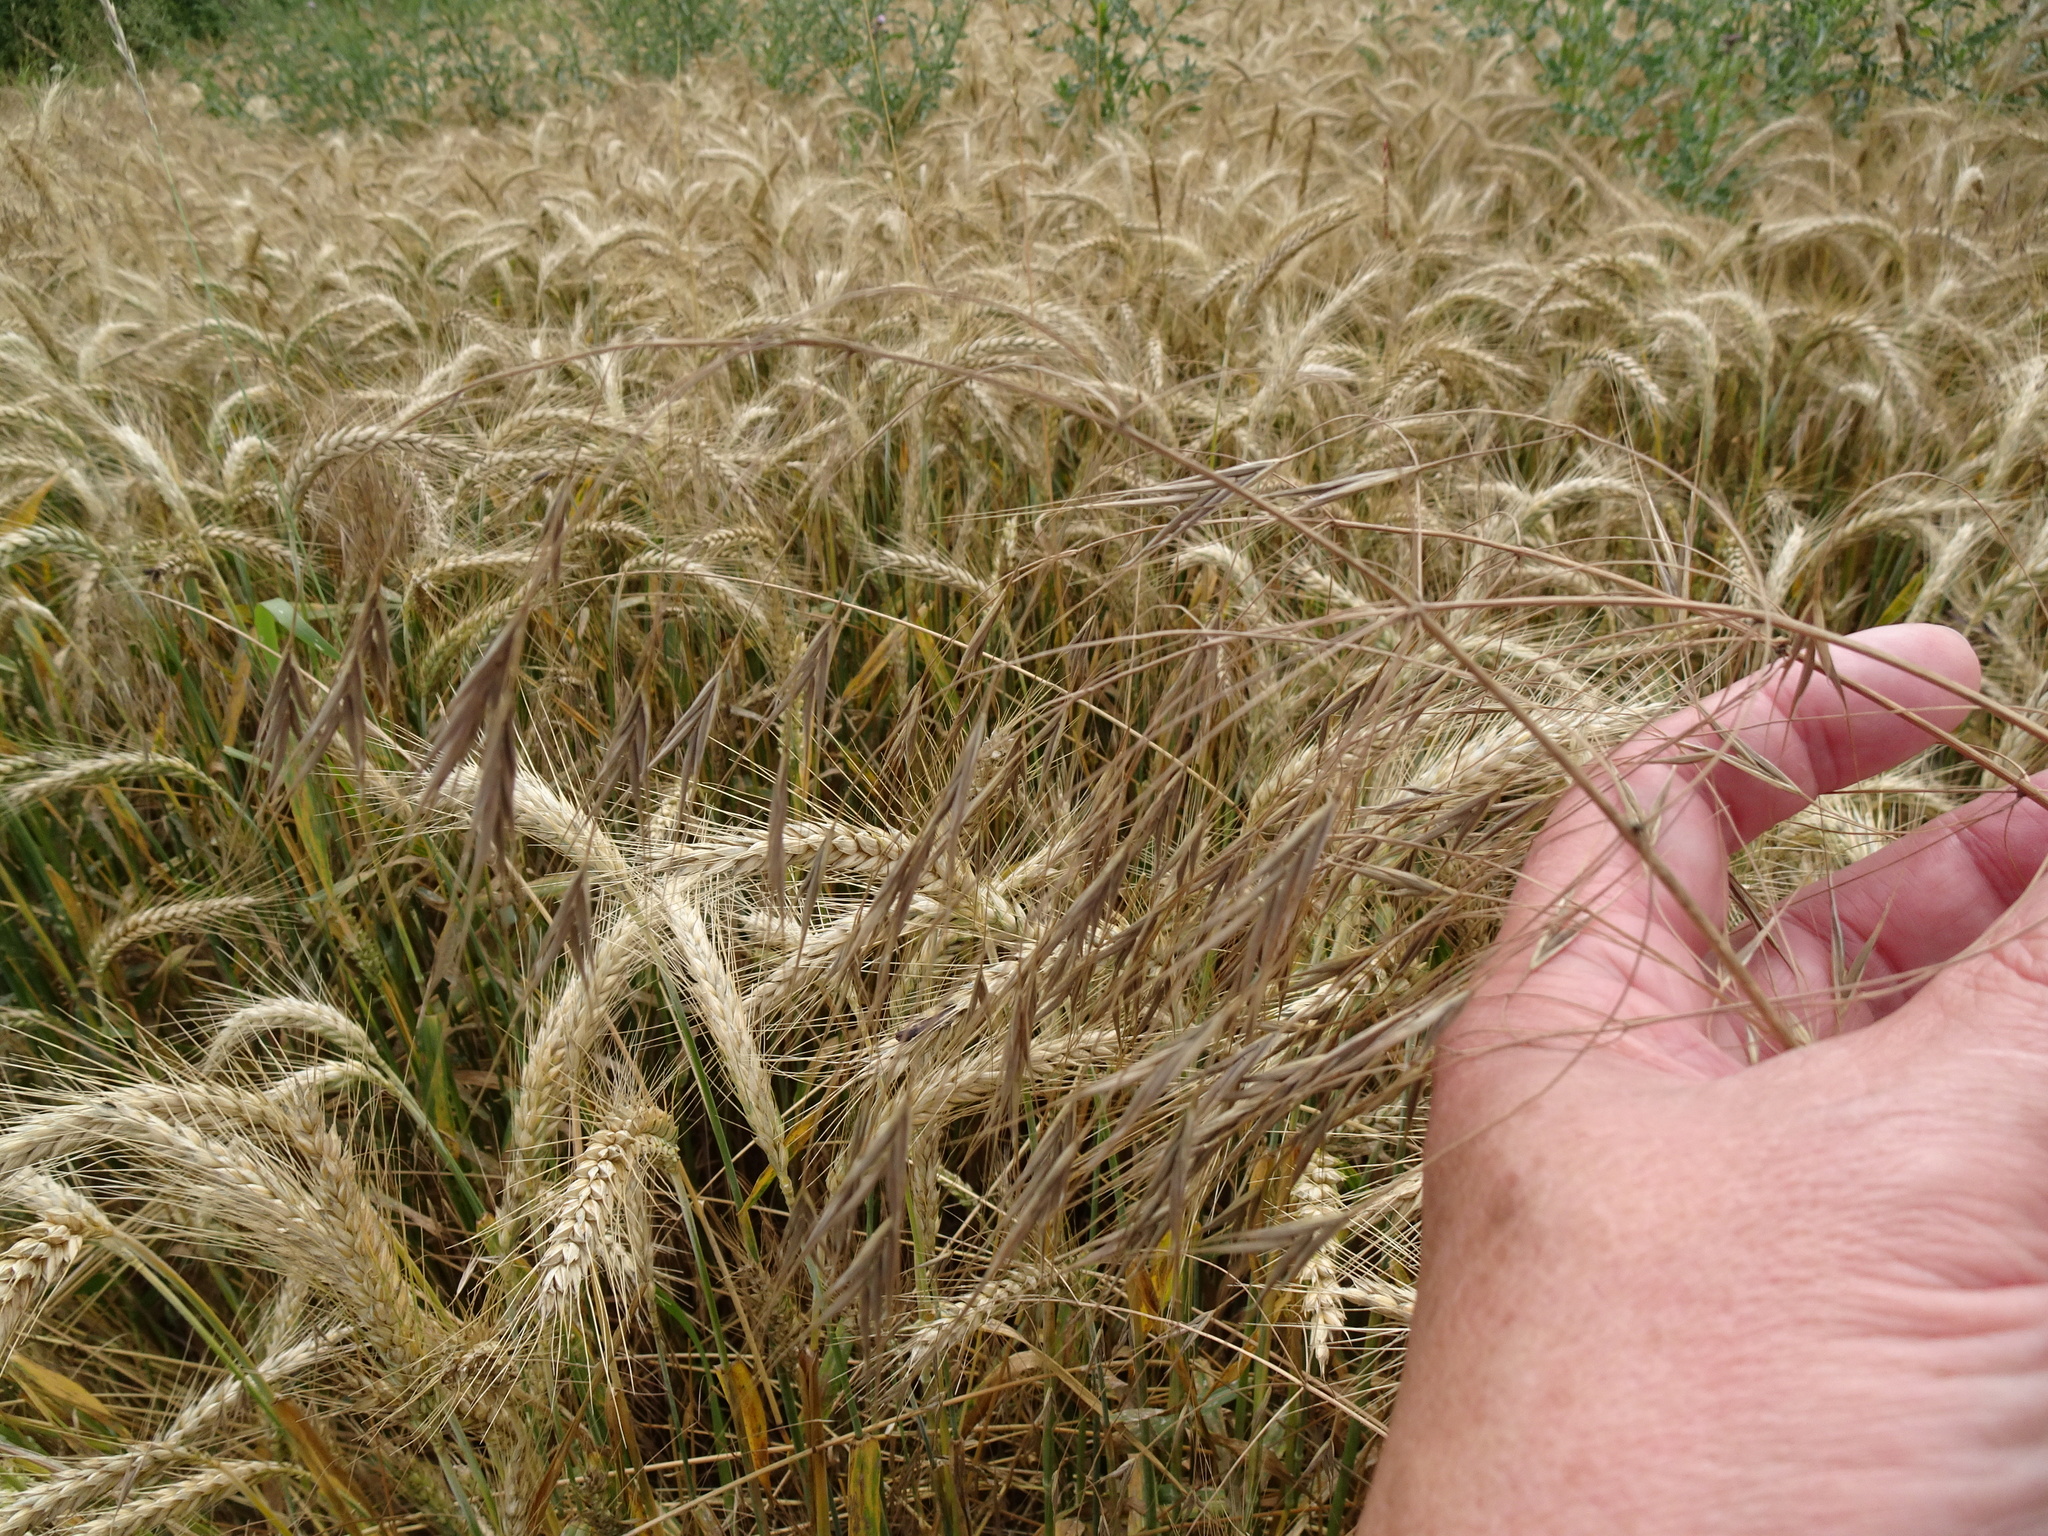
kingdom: Plantae
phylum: Tracheophyta
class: Liliopsida
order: Poales
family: Poaceae
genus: Bromus
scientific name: Bromus sterilis
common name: Poverty brome
